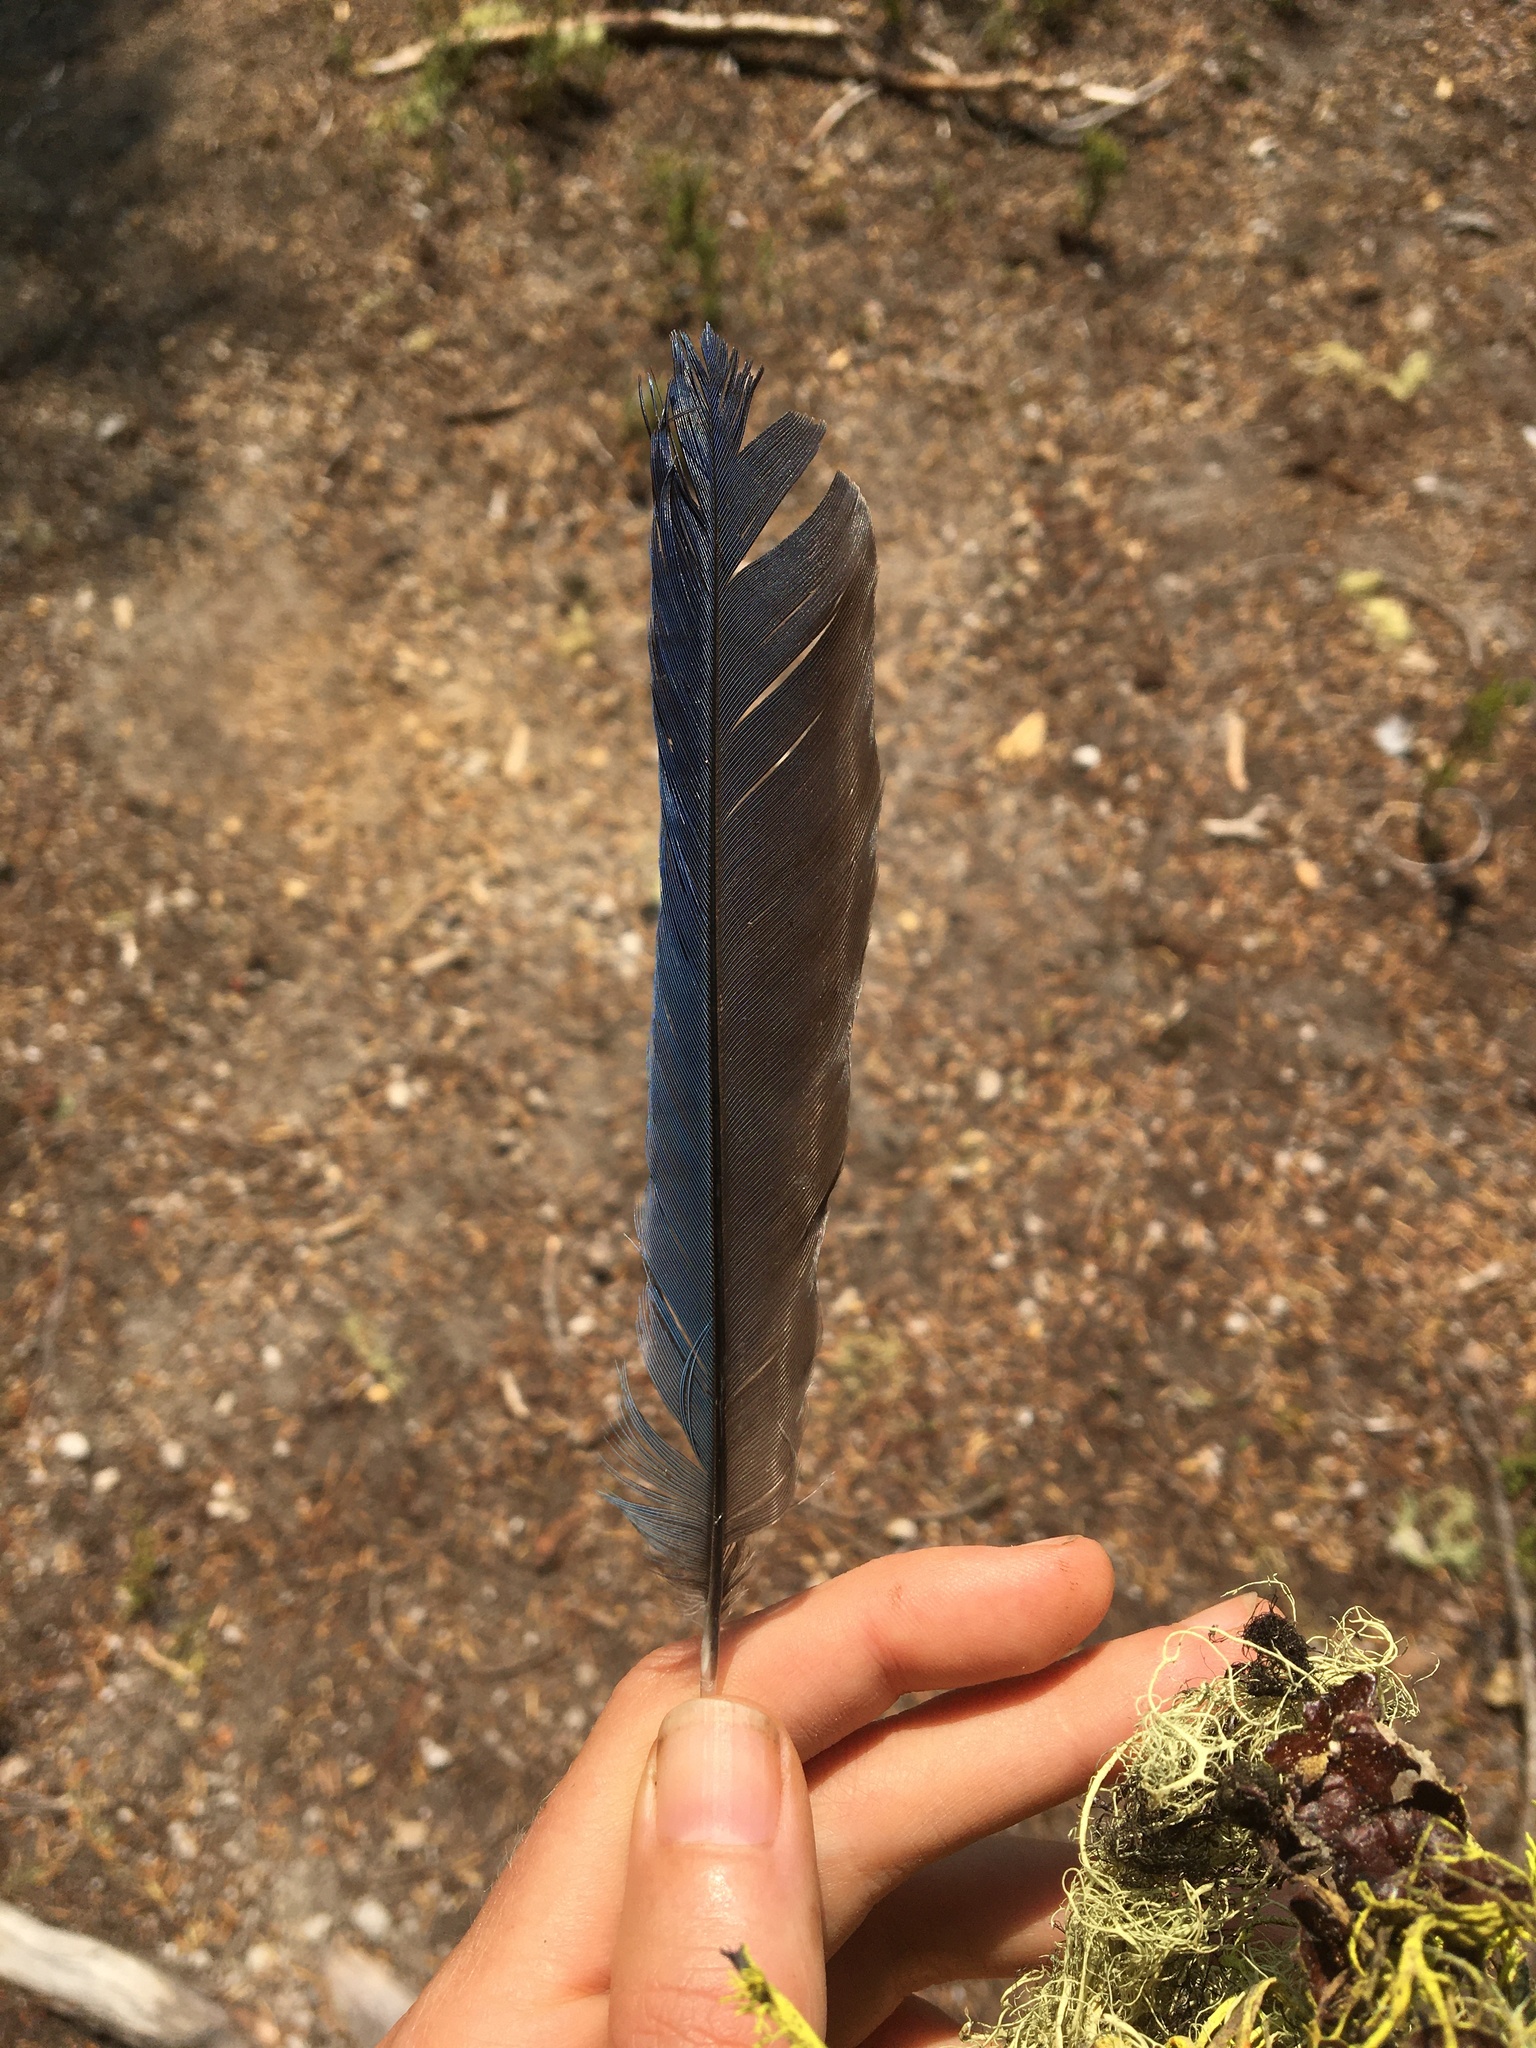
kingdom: Animalia
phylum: Chordata
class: Aves
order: Passeriformes
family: Corvidae
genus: Cyanocitta
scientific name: Cyanocitta stelleri
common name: Steller's jay
